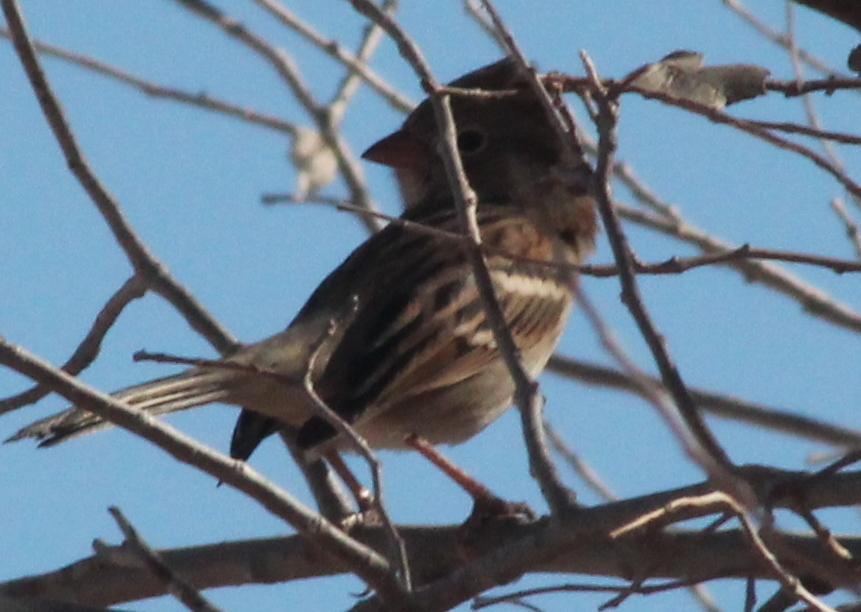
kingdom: Animalia
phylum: Chordata
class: Aves
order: Passeriformes
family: Passerellidae
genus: Spizella
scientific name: Spizella pusilla
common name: Field sparrow
